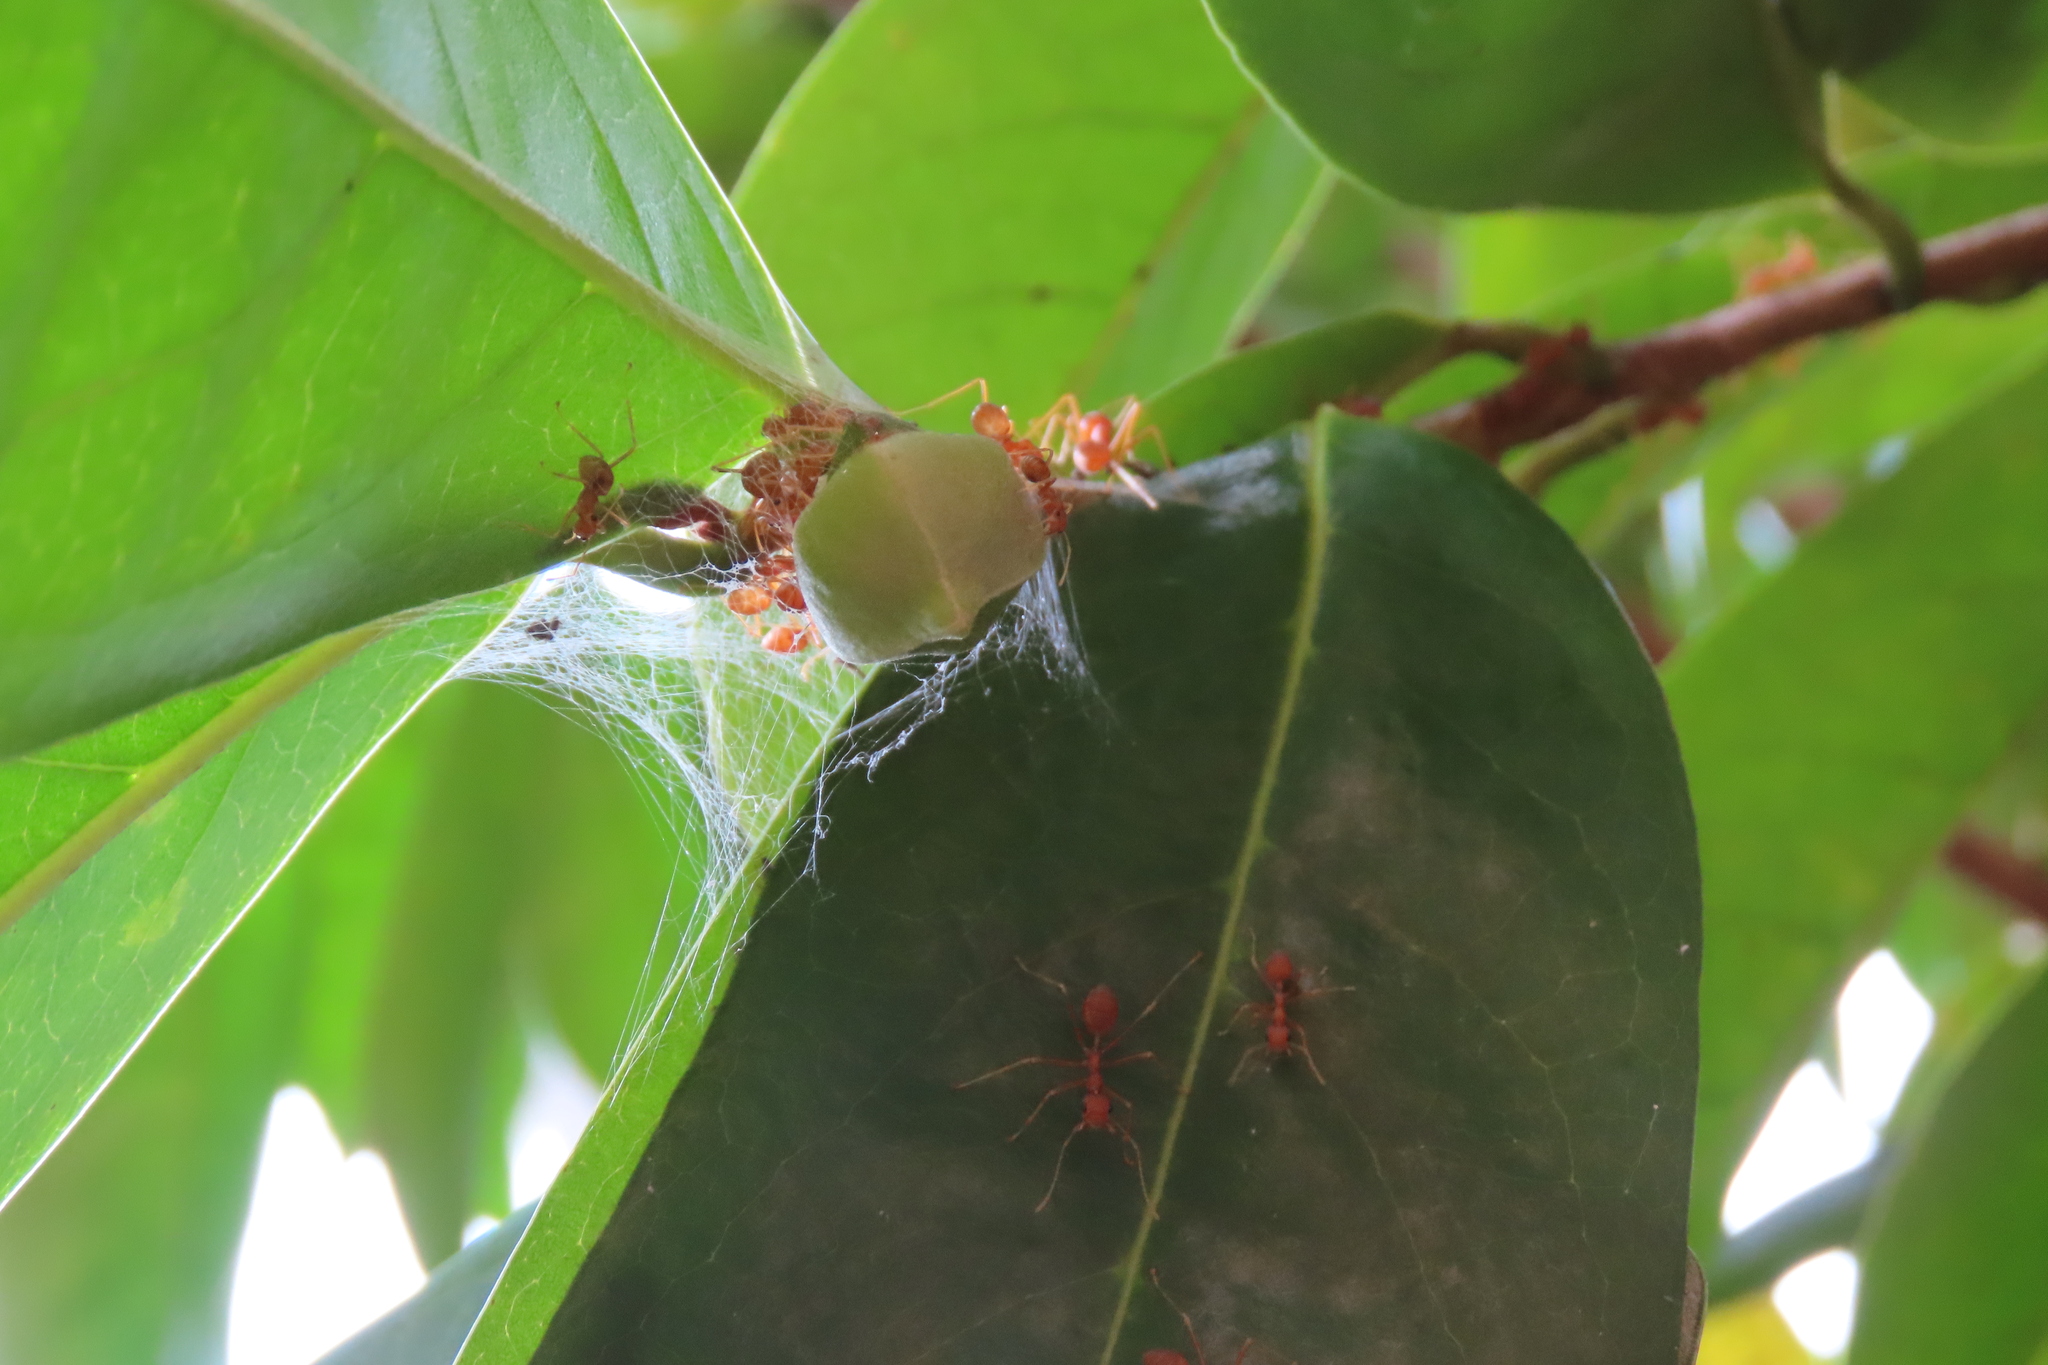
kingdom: Animalia
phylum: Arthropoda
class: Insecta
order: Hymenoptera
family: Formicidae
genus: Oecophylla
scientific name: Oecophylla smaragdina
